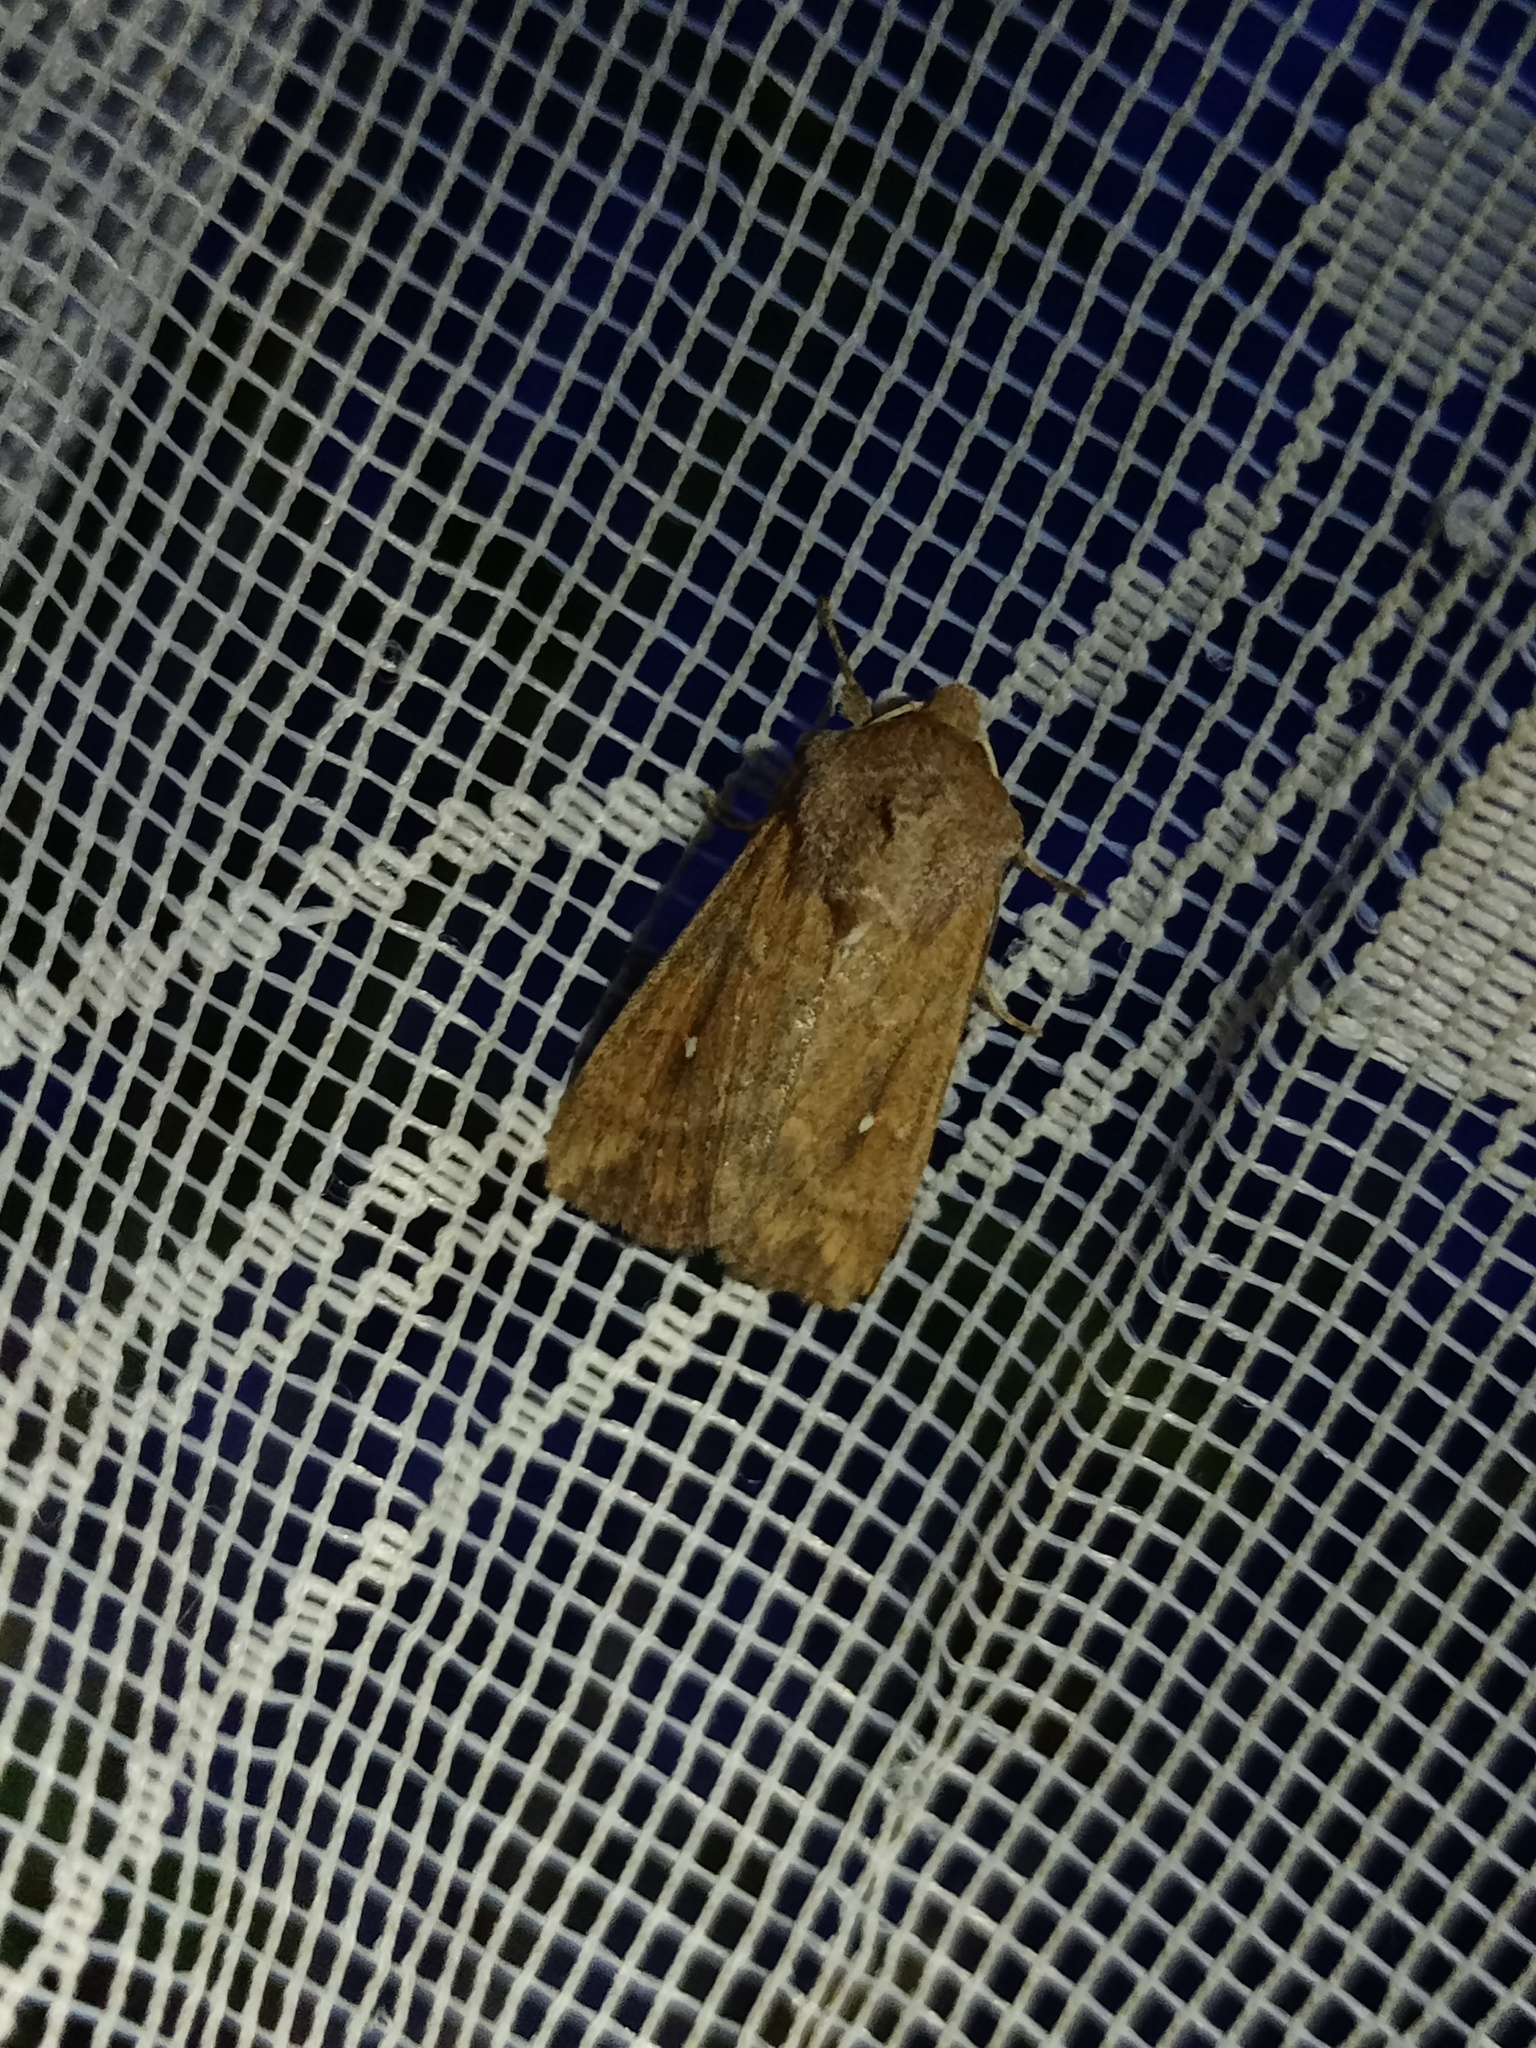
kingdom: Animalia
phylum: Arthropoda
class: Insecta
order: Lepidoptera
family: Noctuidae
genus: Mythimna
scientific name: Mythimna albipuncta
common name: White-point
